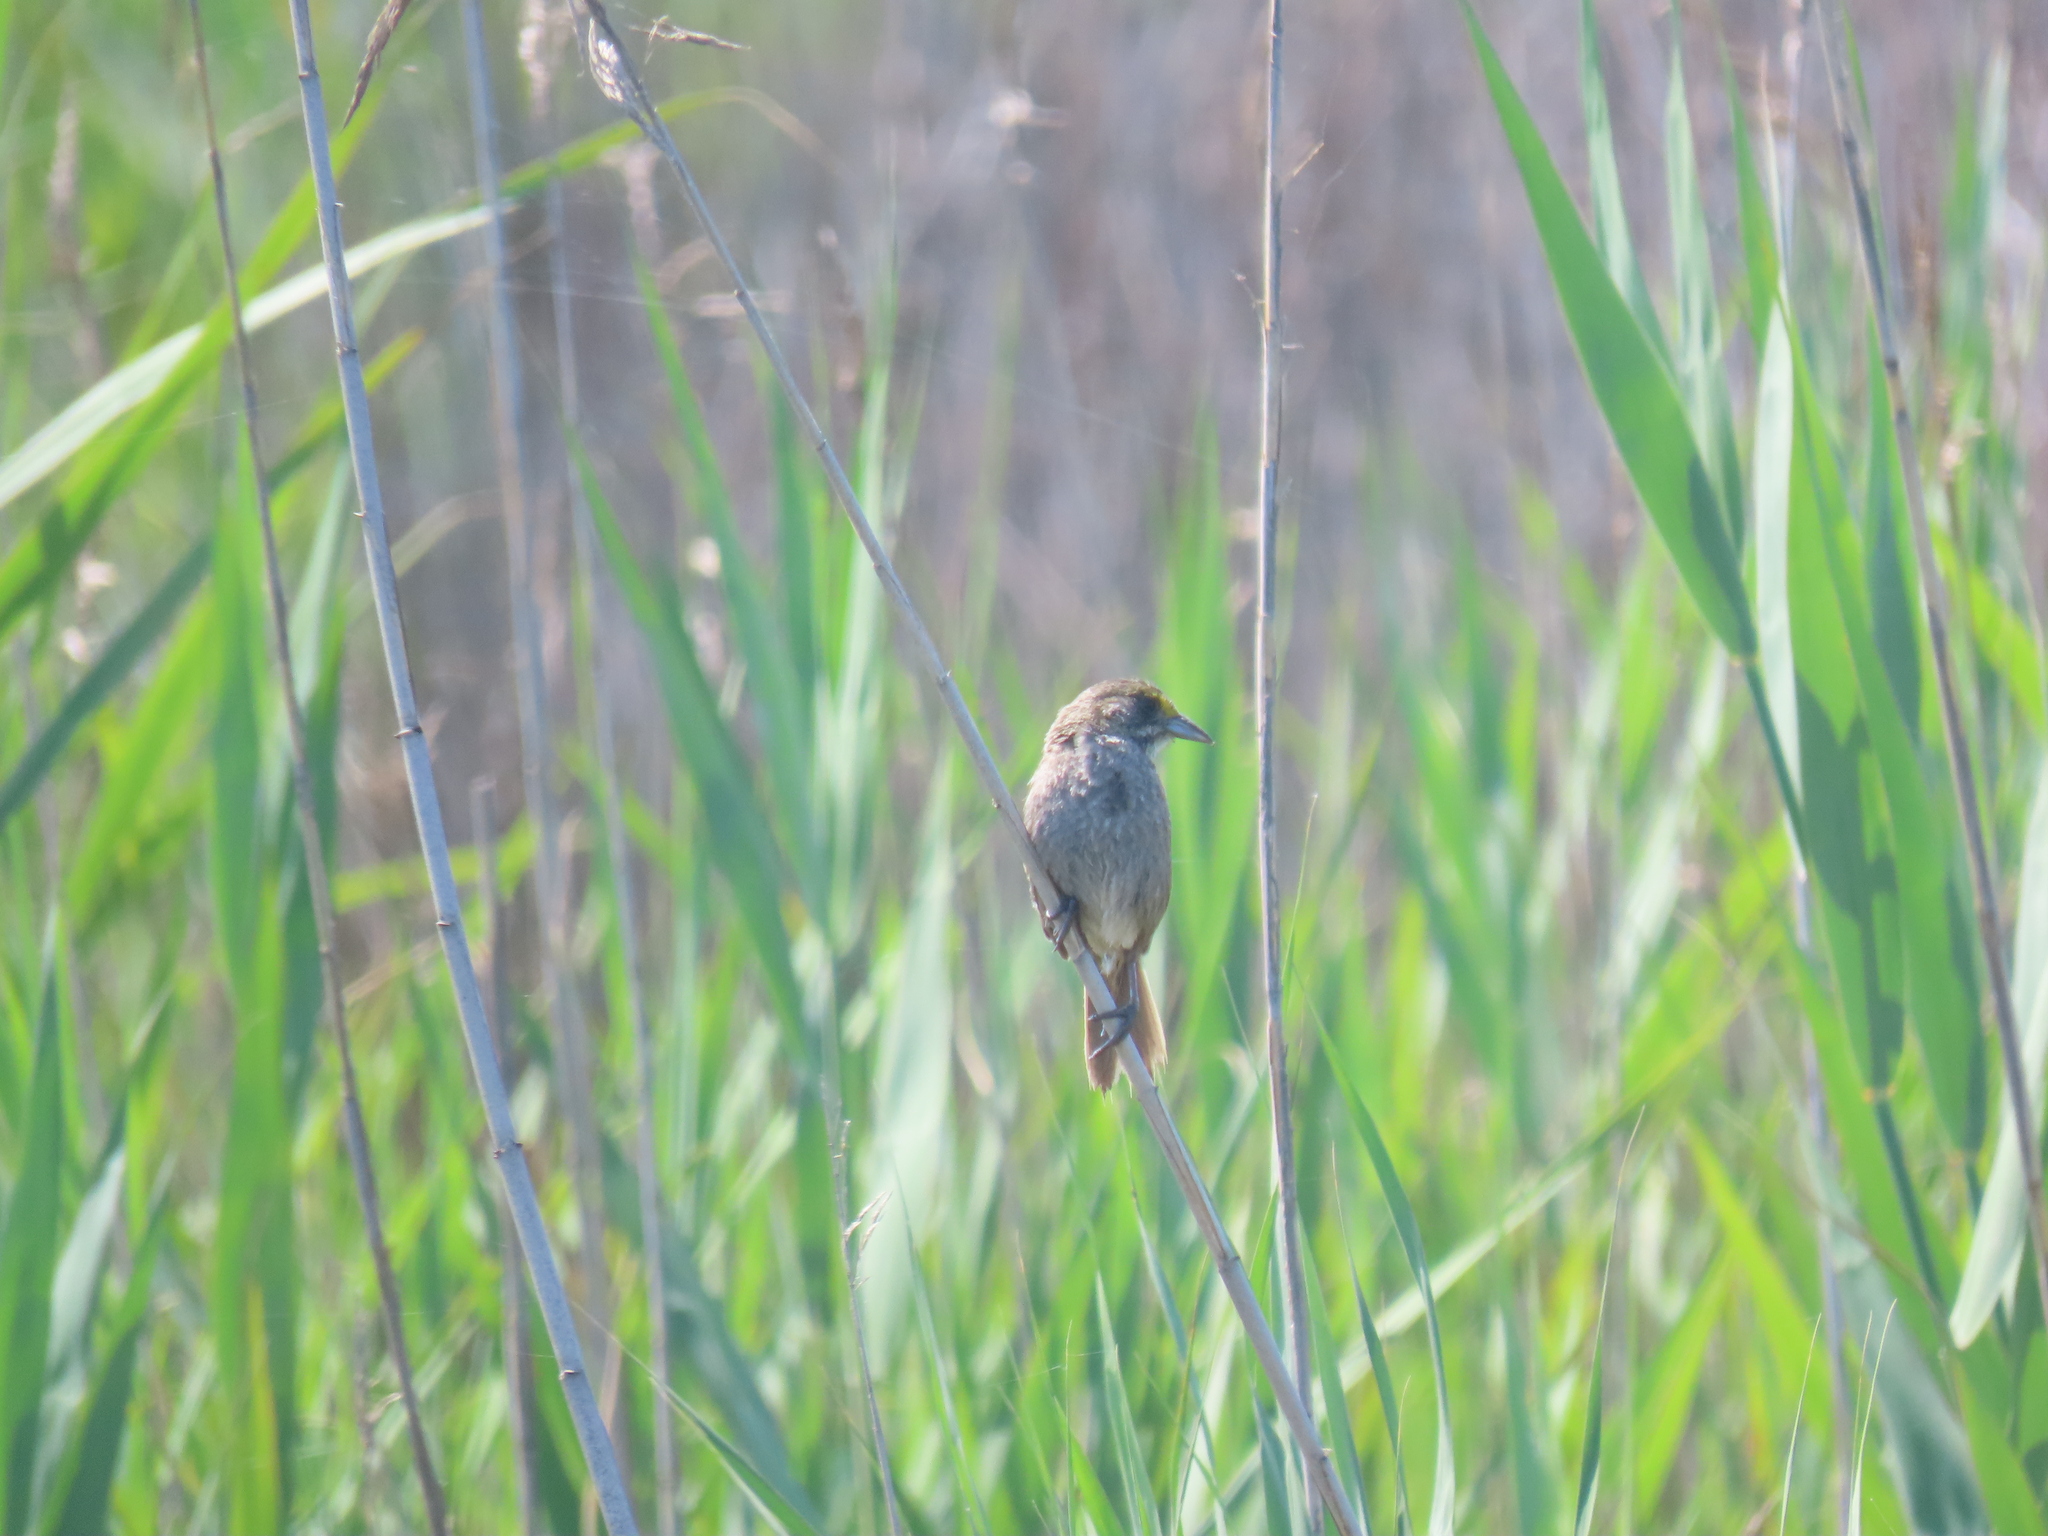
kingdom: Animalia
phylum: Chordata
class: Aves
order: Passeriformes
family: Passerellidae
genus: Ammospiza
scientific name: Ammospiza maritima
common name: Seaside sparrow
